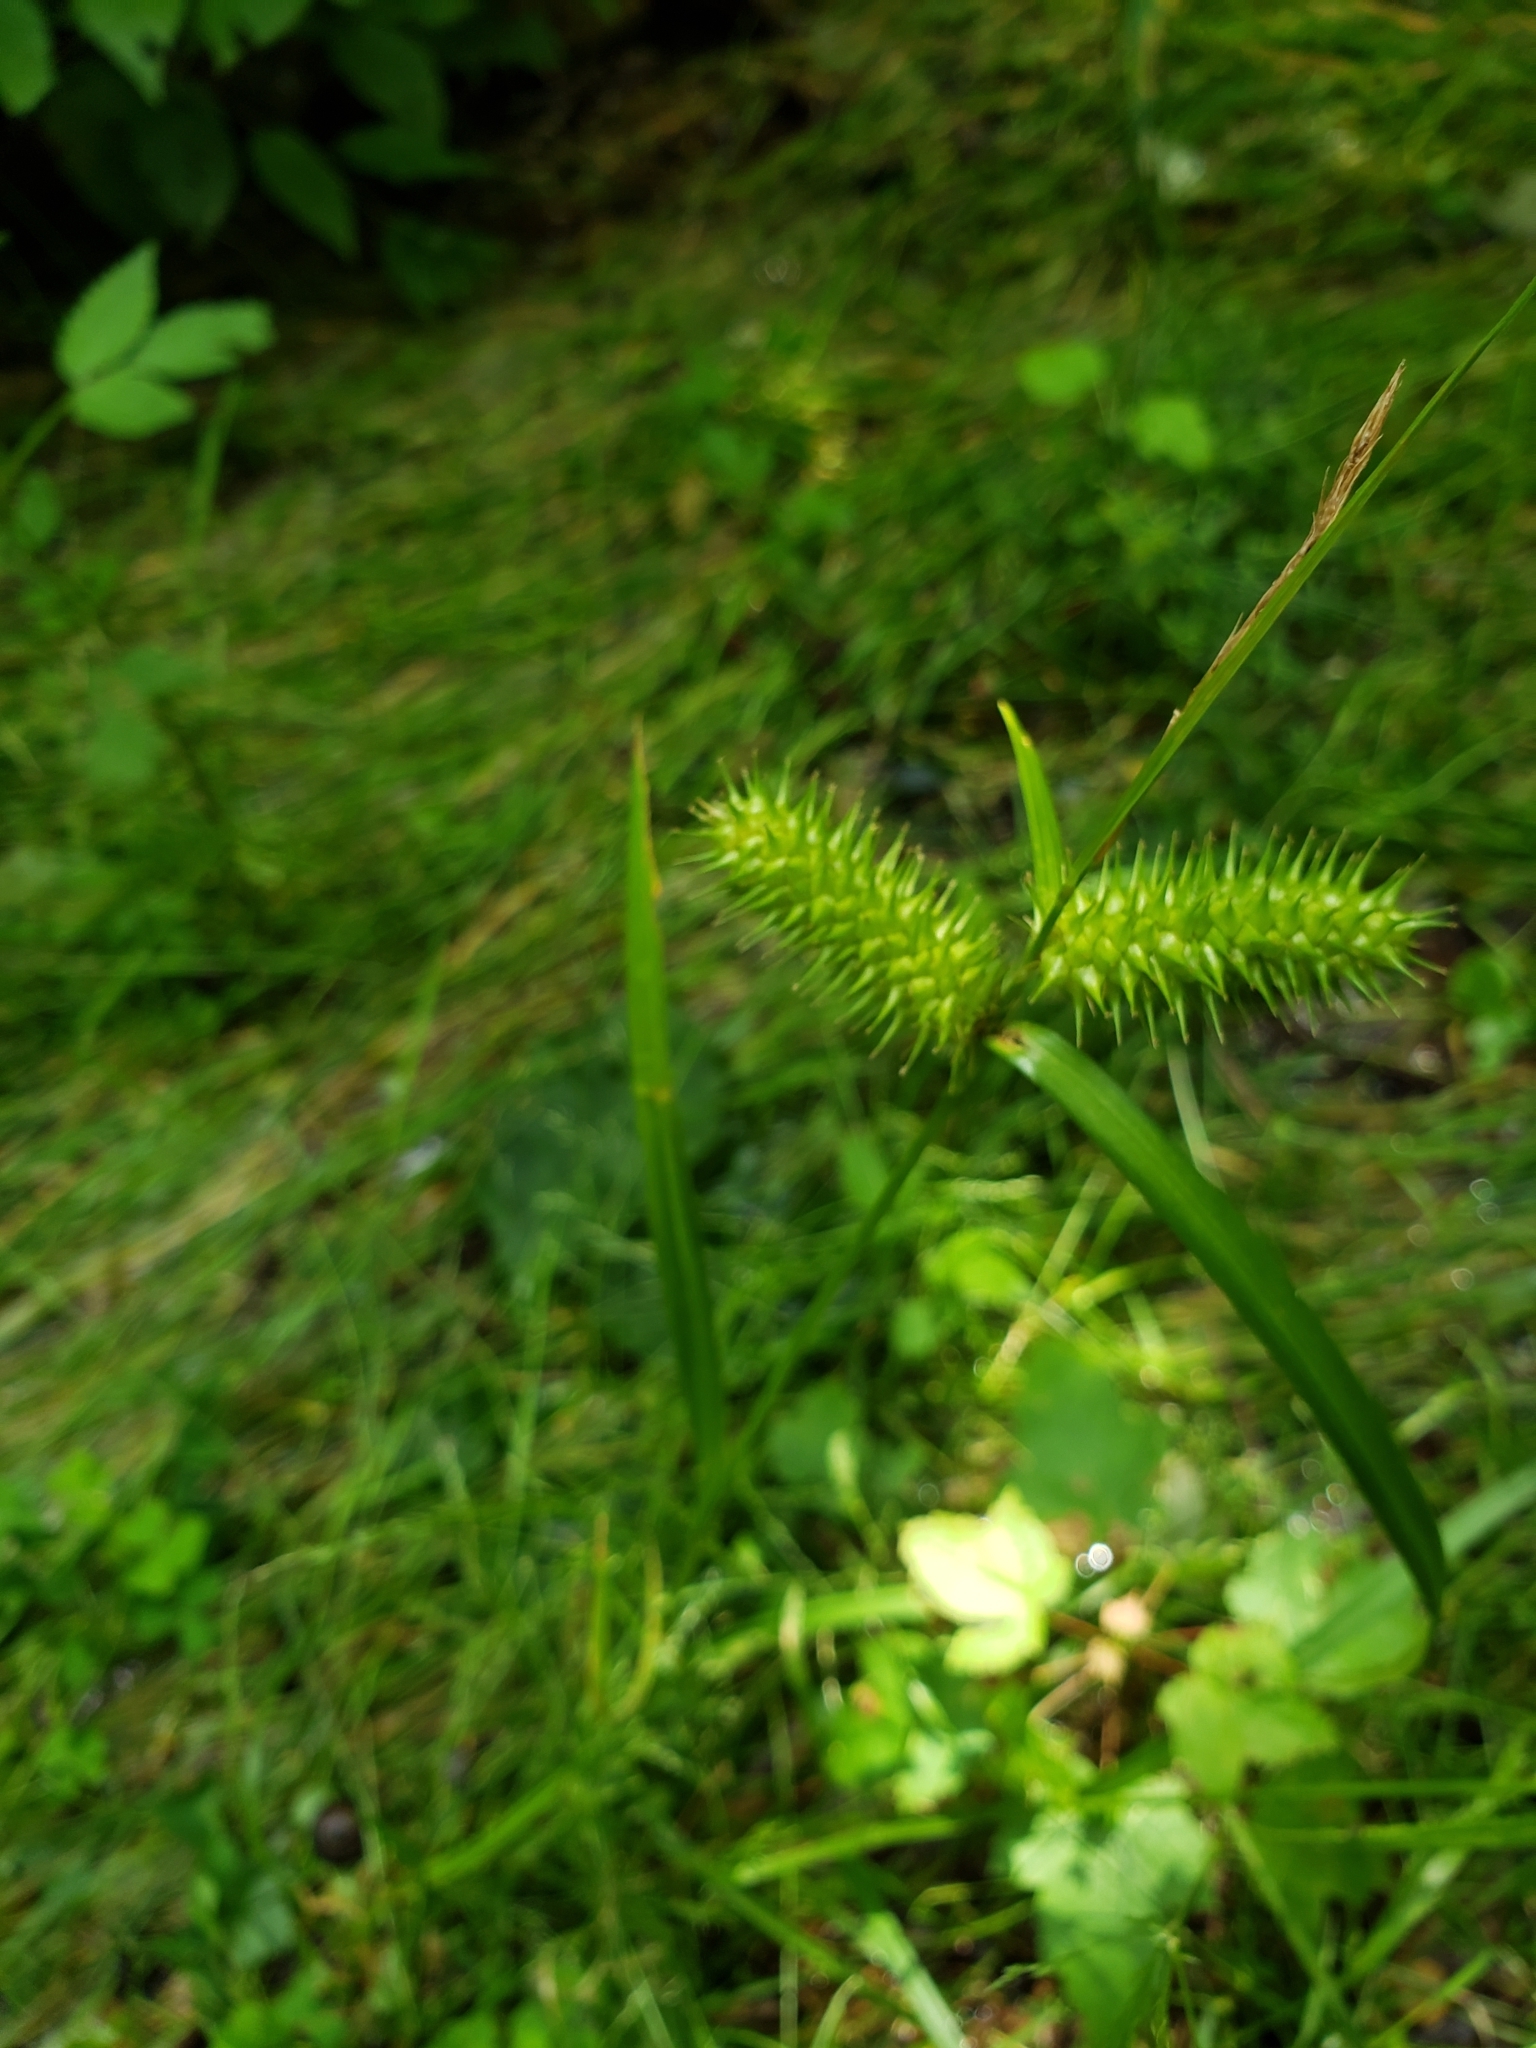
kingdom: Plantae
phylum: Tracheophyta
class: Liliopsida
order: Poales
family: Cyperaceae
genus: Carex
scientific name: Carex lurida
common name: Sallow sedge
